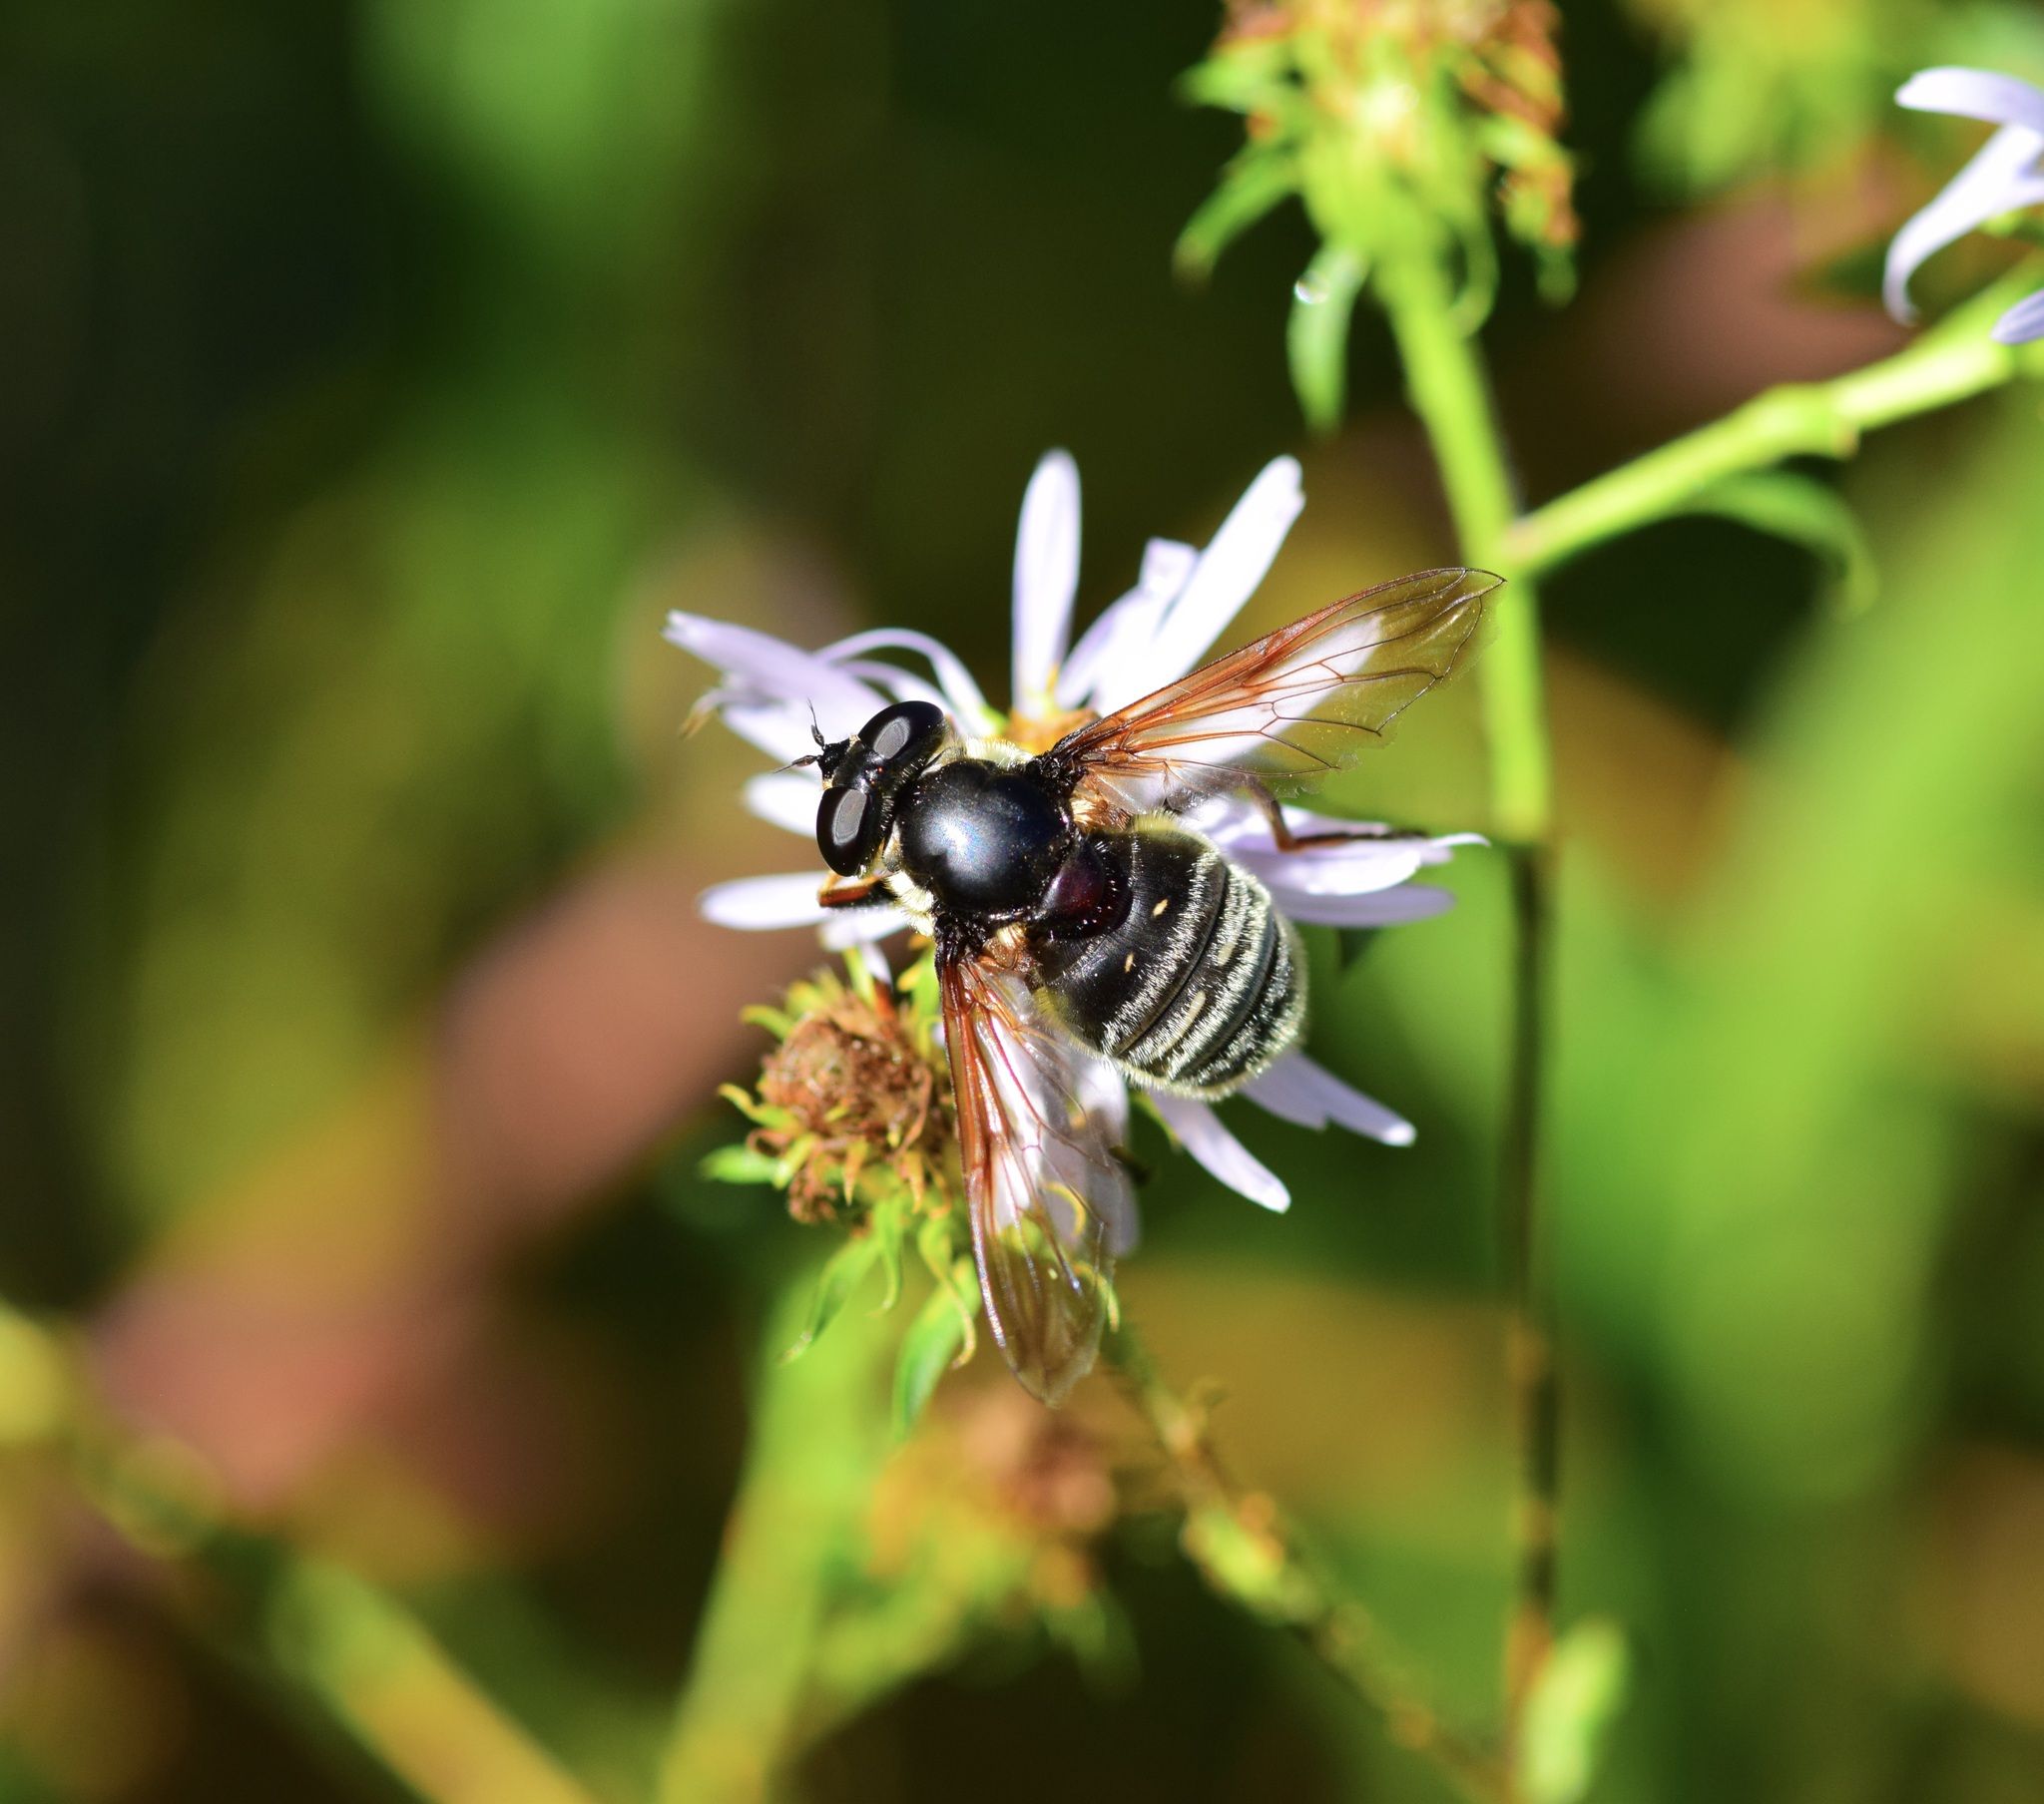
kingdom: Animalia
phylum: Arthropoda
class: Insecta
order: Diptera
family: Syrphidae
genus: Sericomyia
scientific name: Sericomyia militaris
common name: Narrow-banded pond fly
